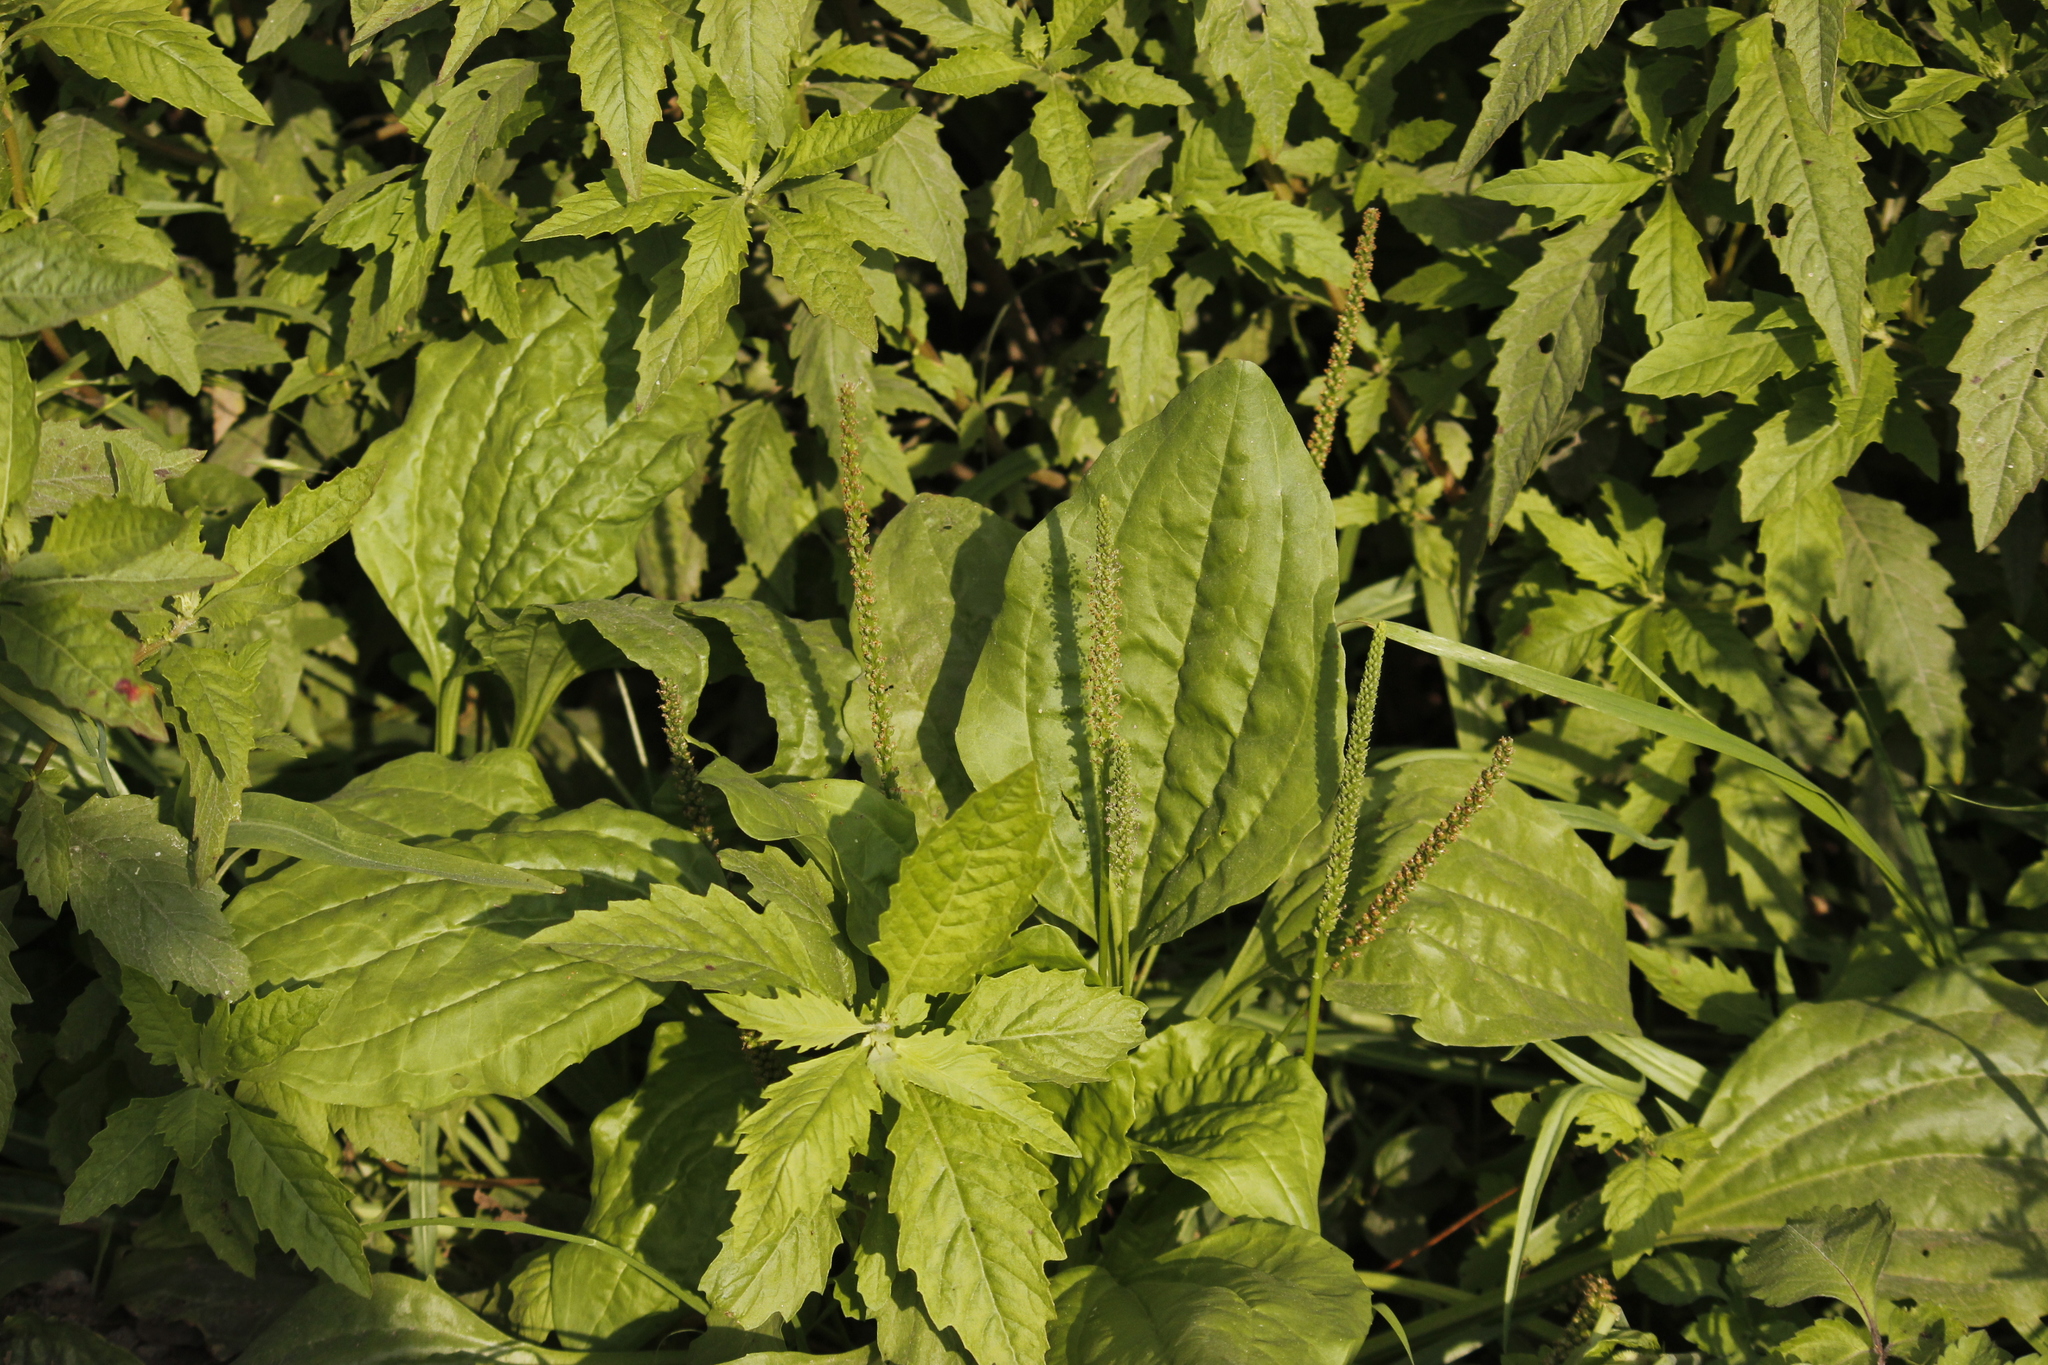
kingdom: Plantae
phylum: Tracheophyta
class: Magnoliopsida
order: Lamiales
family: Plantaginaceae
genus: Plantago
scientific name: Plantago major
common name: Common plantain
